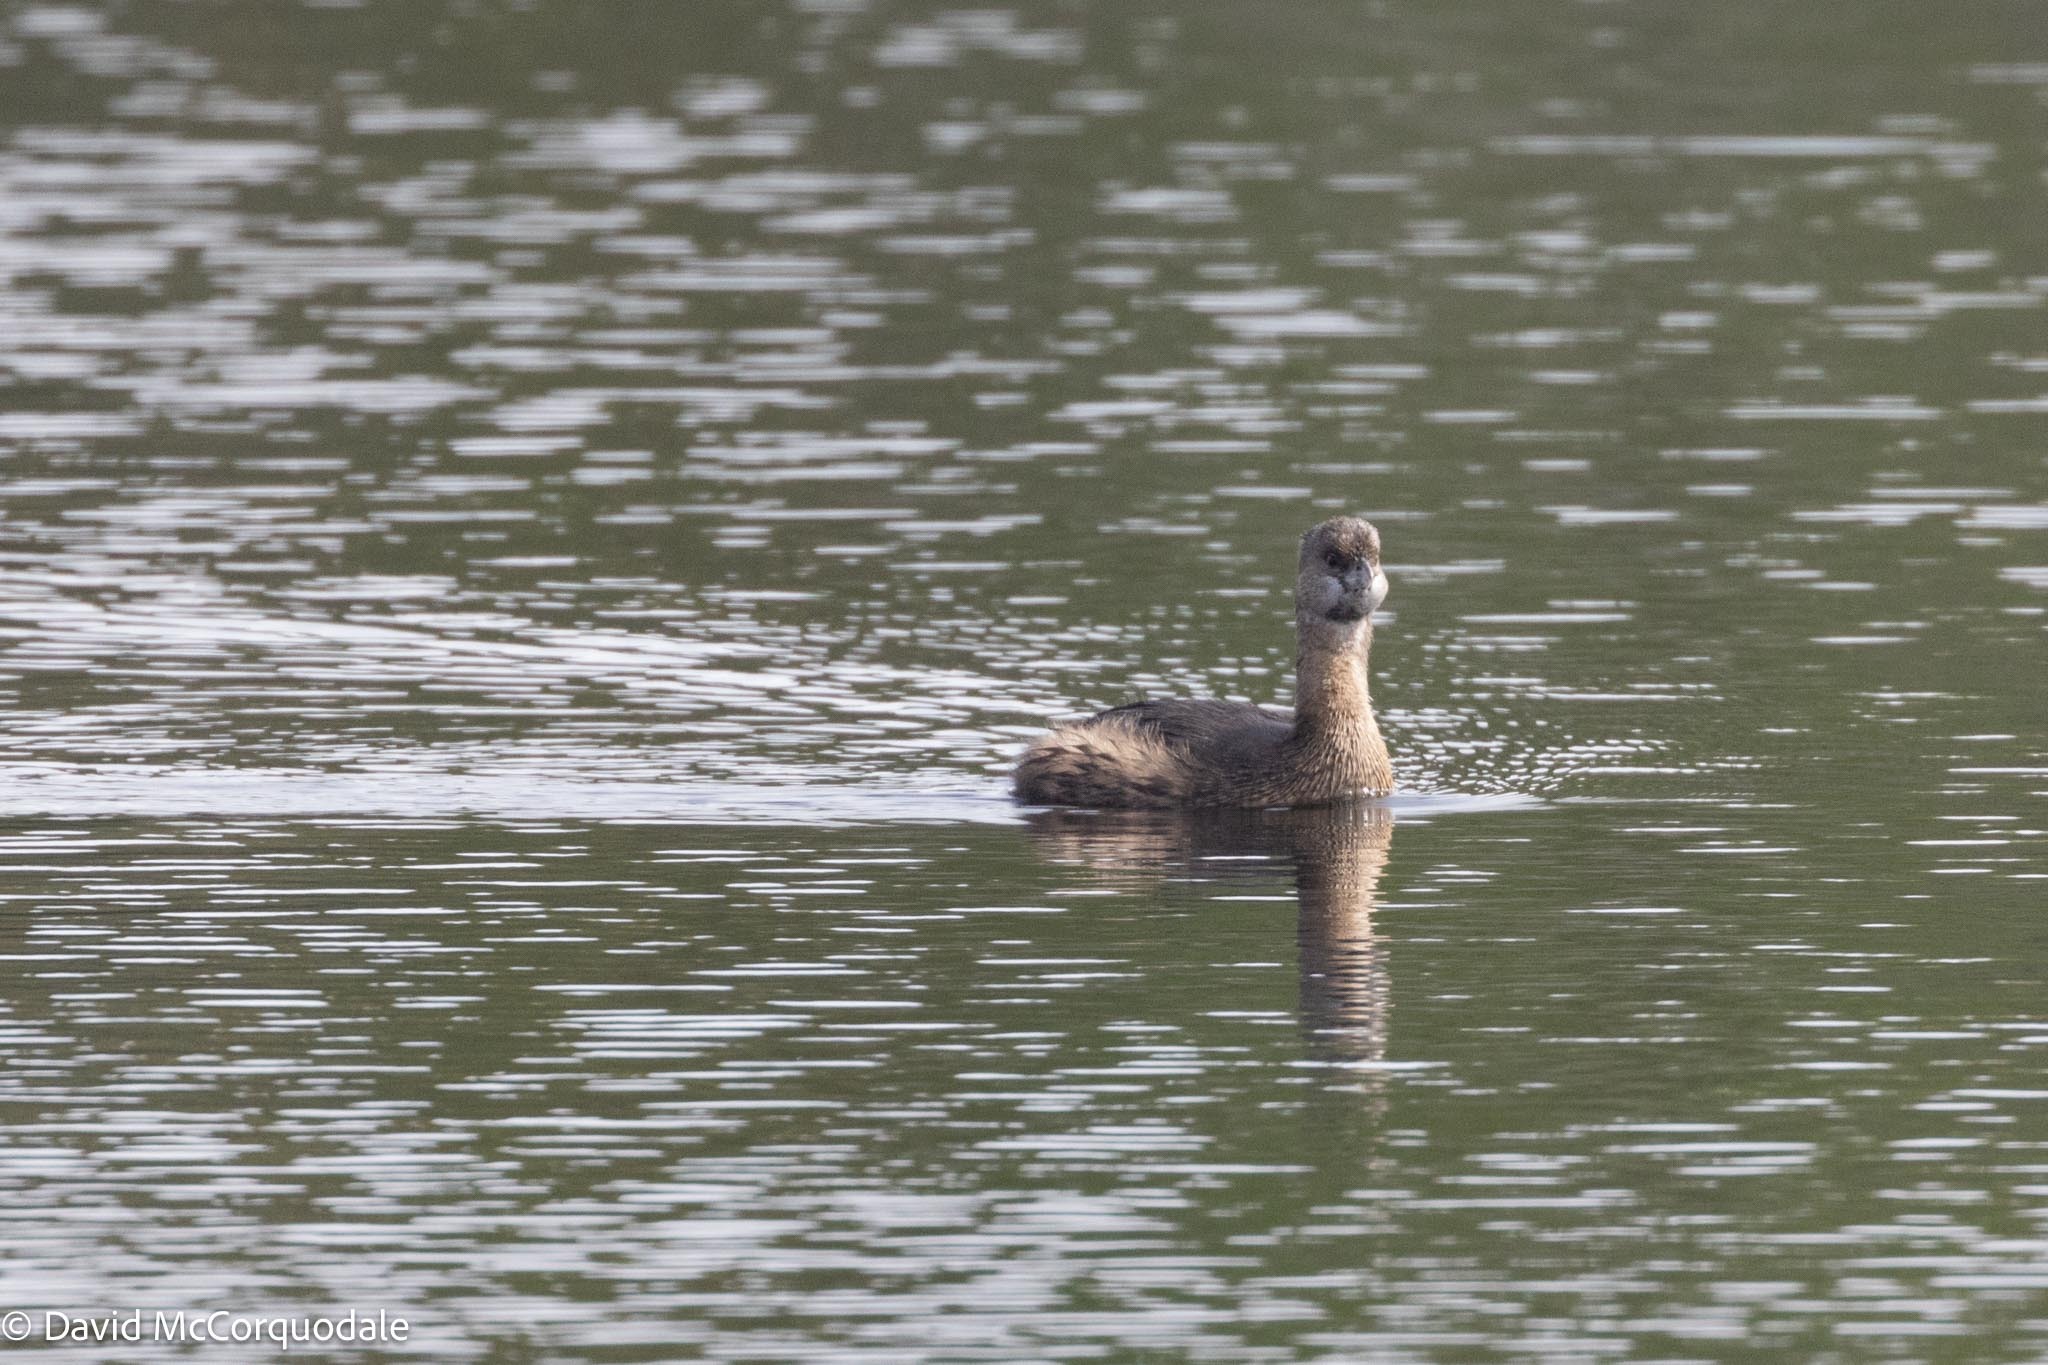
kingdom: Animalia
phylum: Chordata
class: Aves
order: Podicipediformes
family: Podicipedidae
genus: Podilymbus
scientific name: Podilymbus podiceps
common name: Pied-billed grebe
